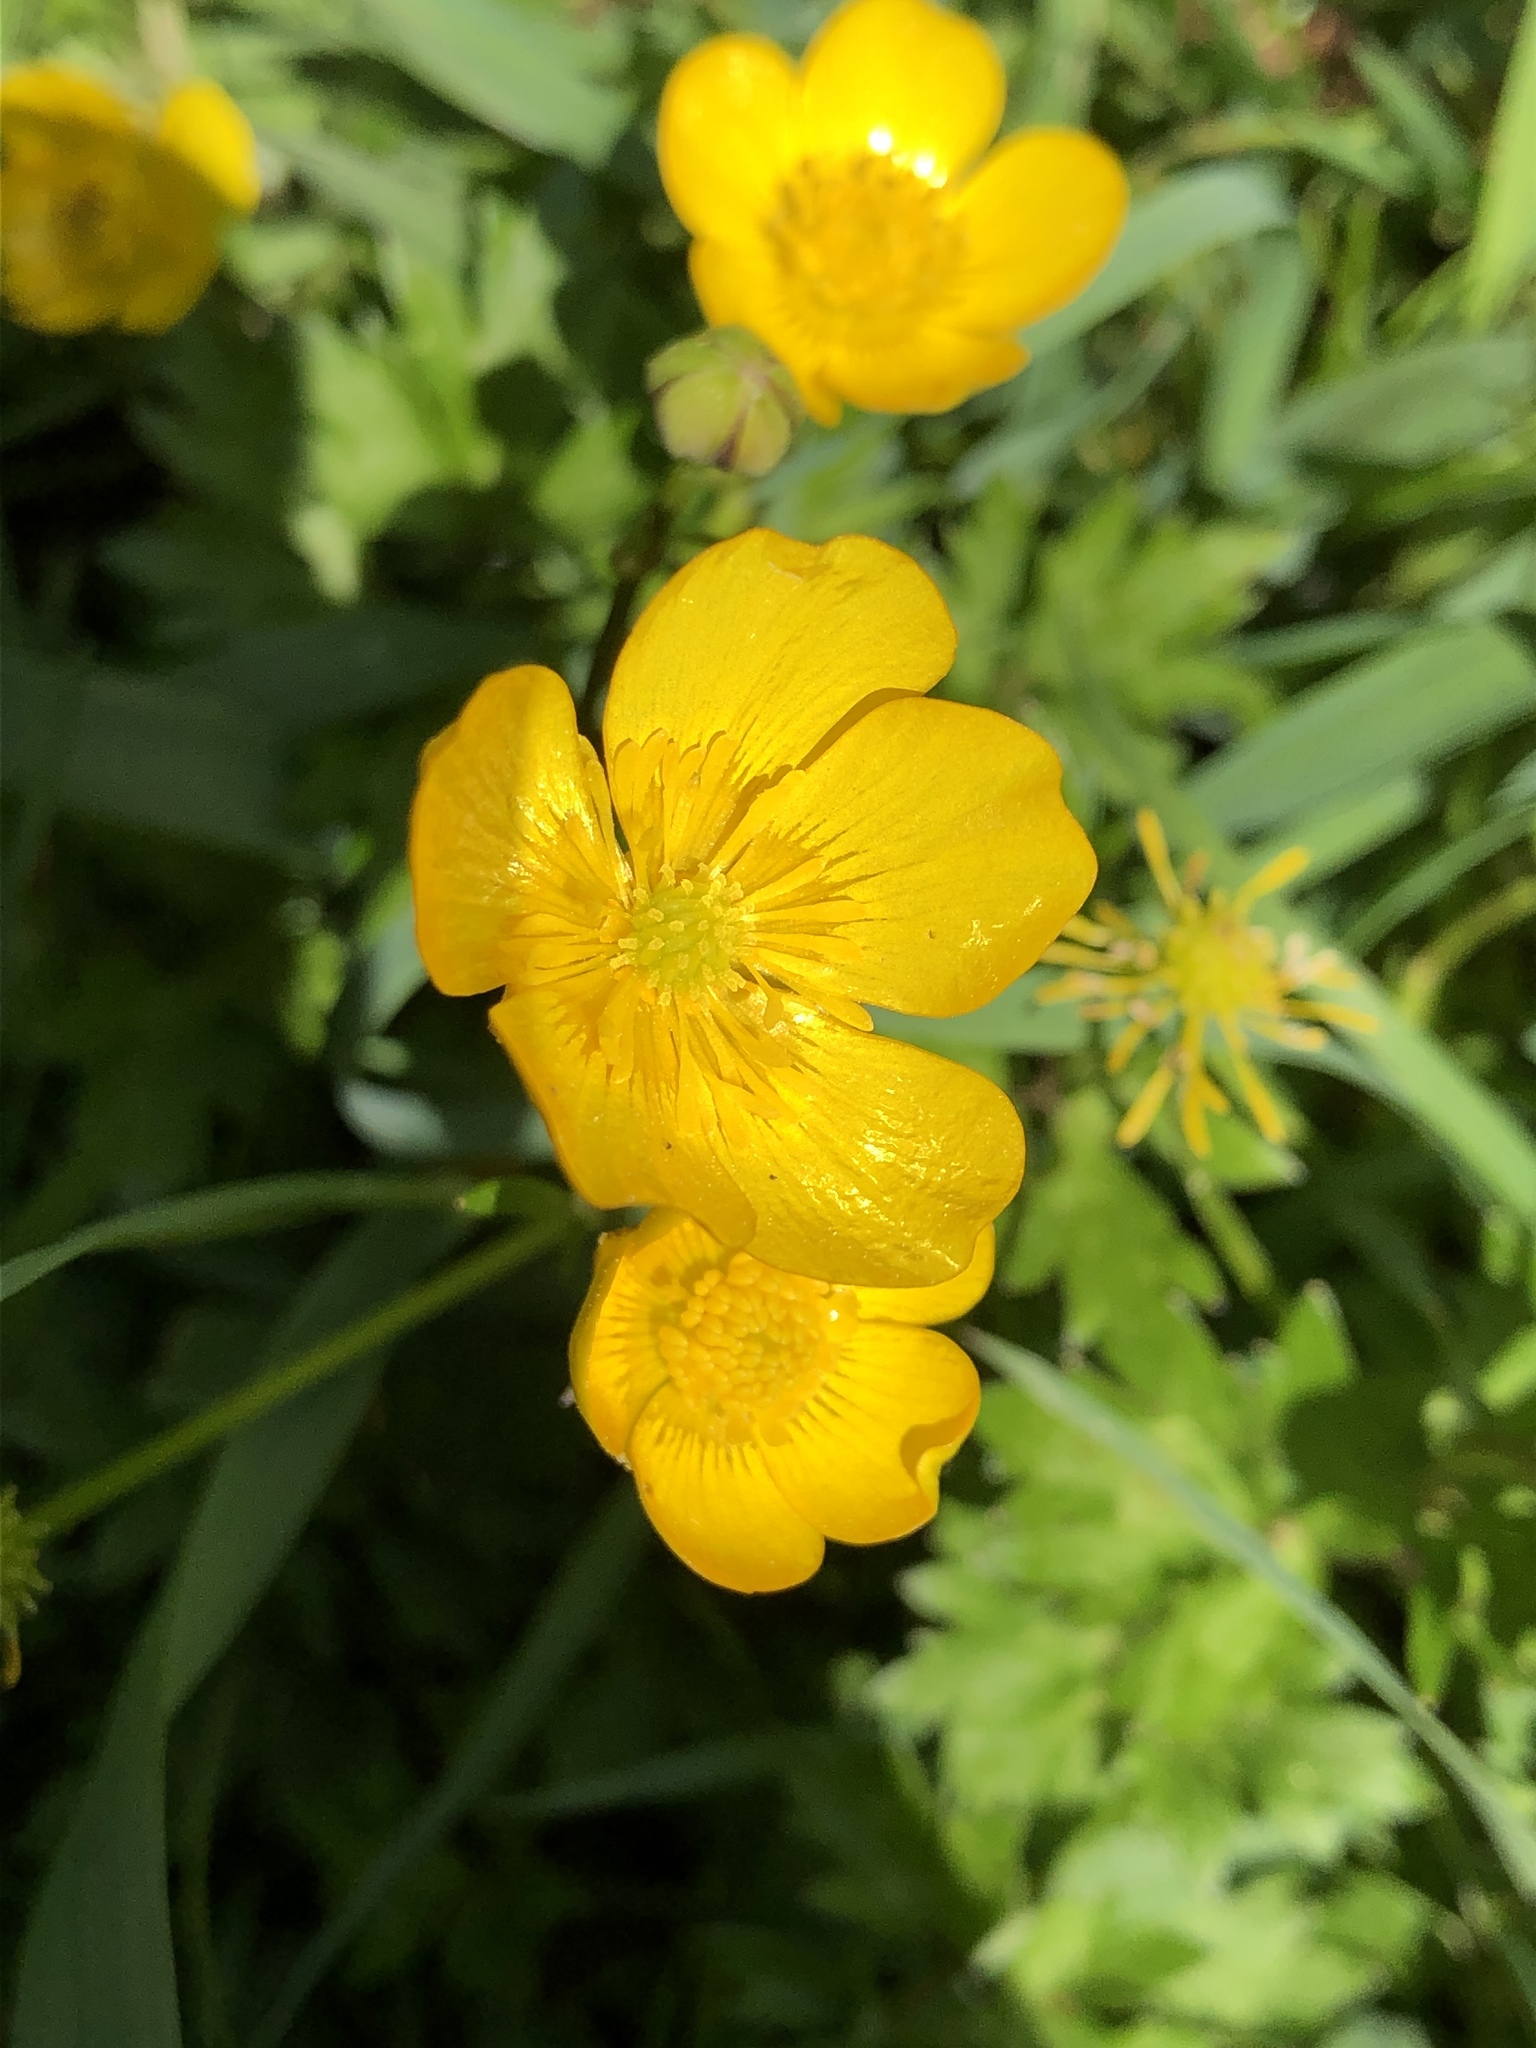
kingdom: Plantae
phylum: Tracheophyta
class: Magnoliopsida
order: Ranunculales
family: Ranunculaceae
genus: Ranunculus
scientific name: Ranunculus repens
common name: Creeping buttercup
